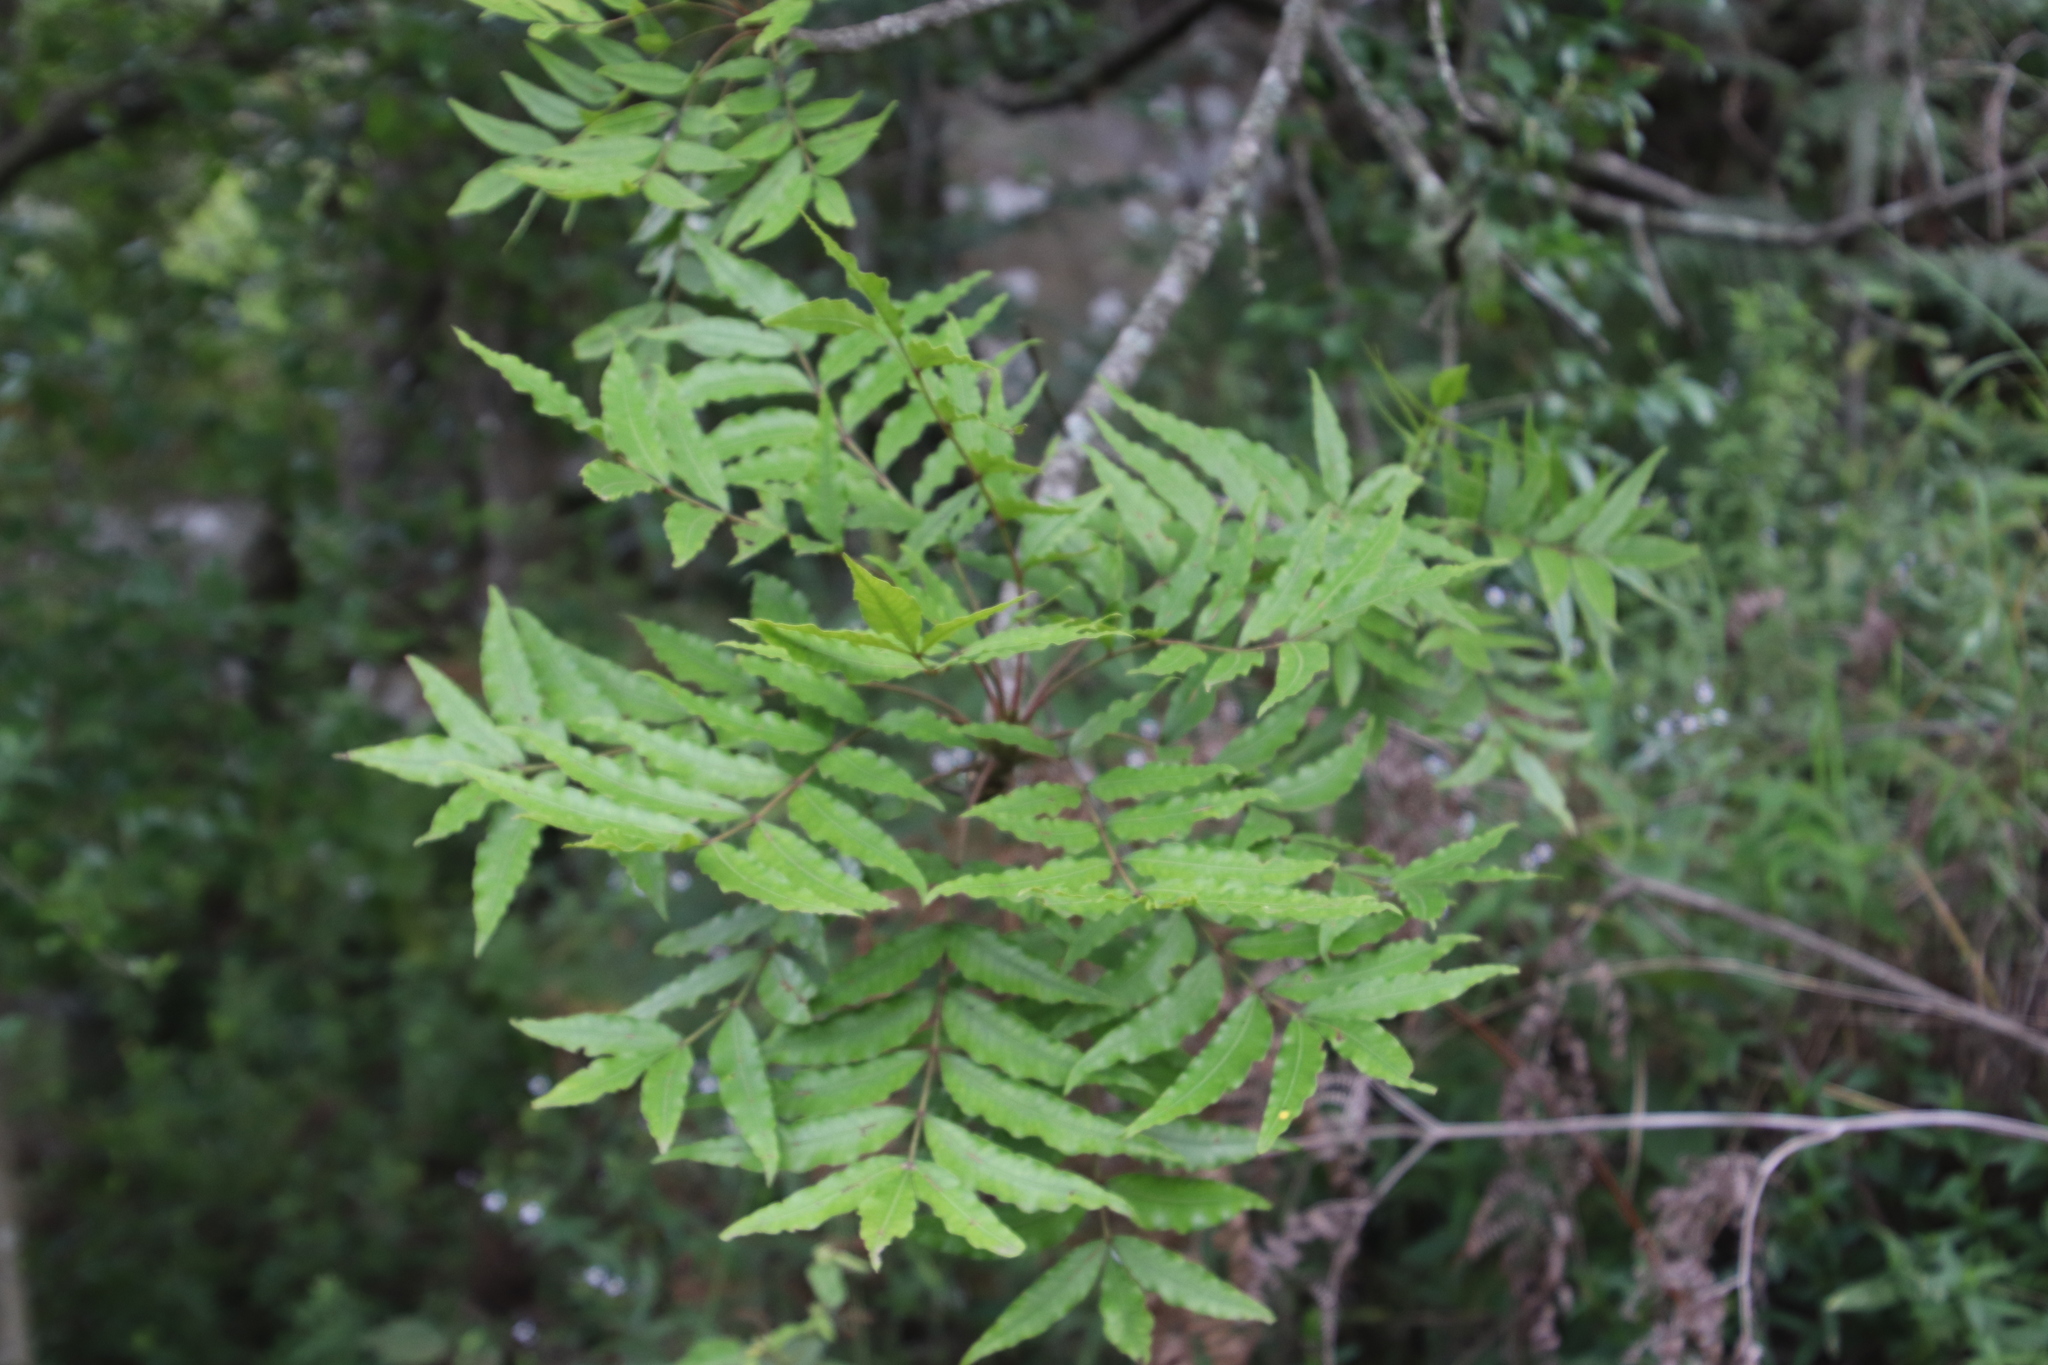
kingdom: Plantae
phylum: Tracheophyta
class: Magnoliopsida
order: Sapindales
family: Anacardiaceae
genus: Harpephyllum
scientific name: Harpephyllum caffrum
